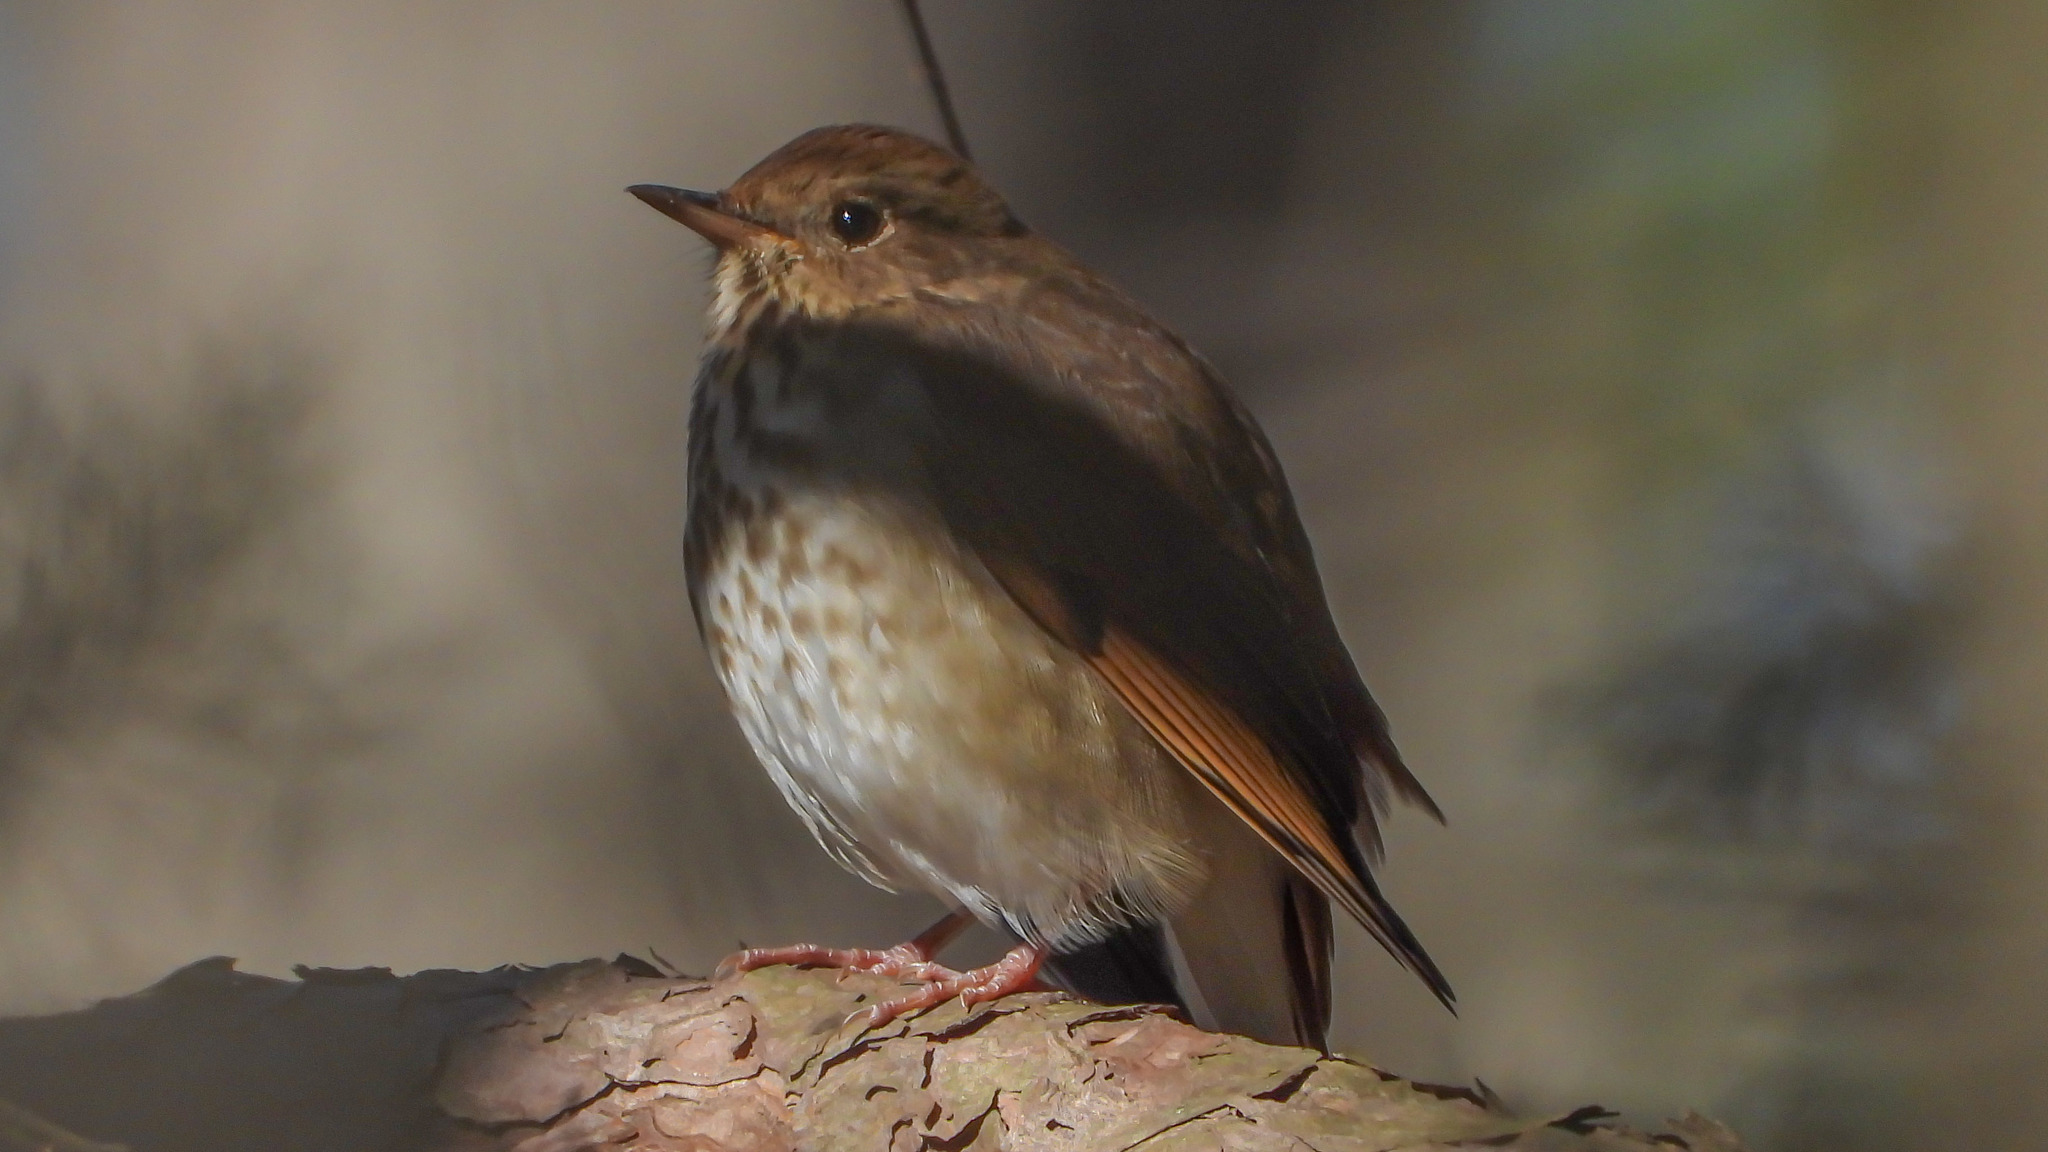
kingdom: Animalia
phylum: Chordata
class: Aves
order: Passeriformes
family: Turdidae
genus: Catharus
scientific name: Catharus guttatus
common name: Hermit thrush
